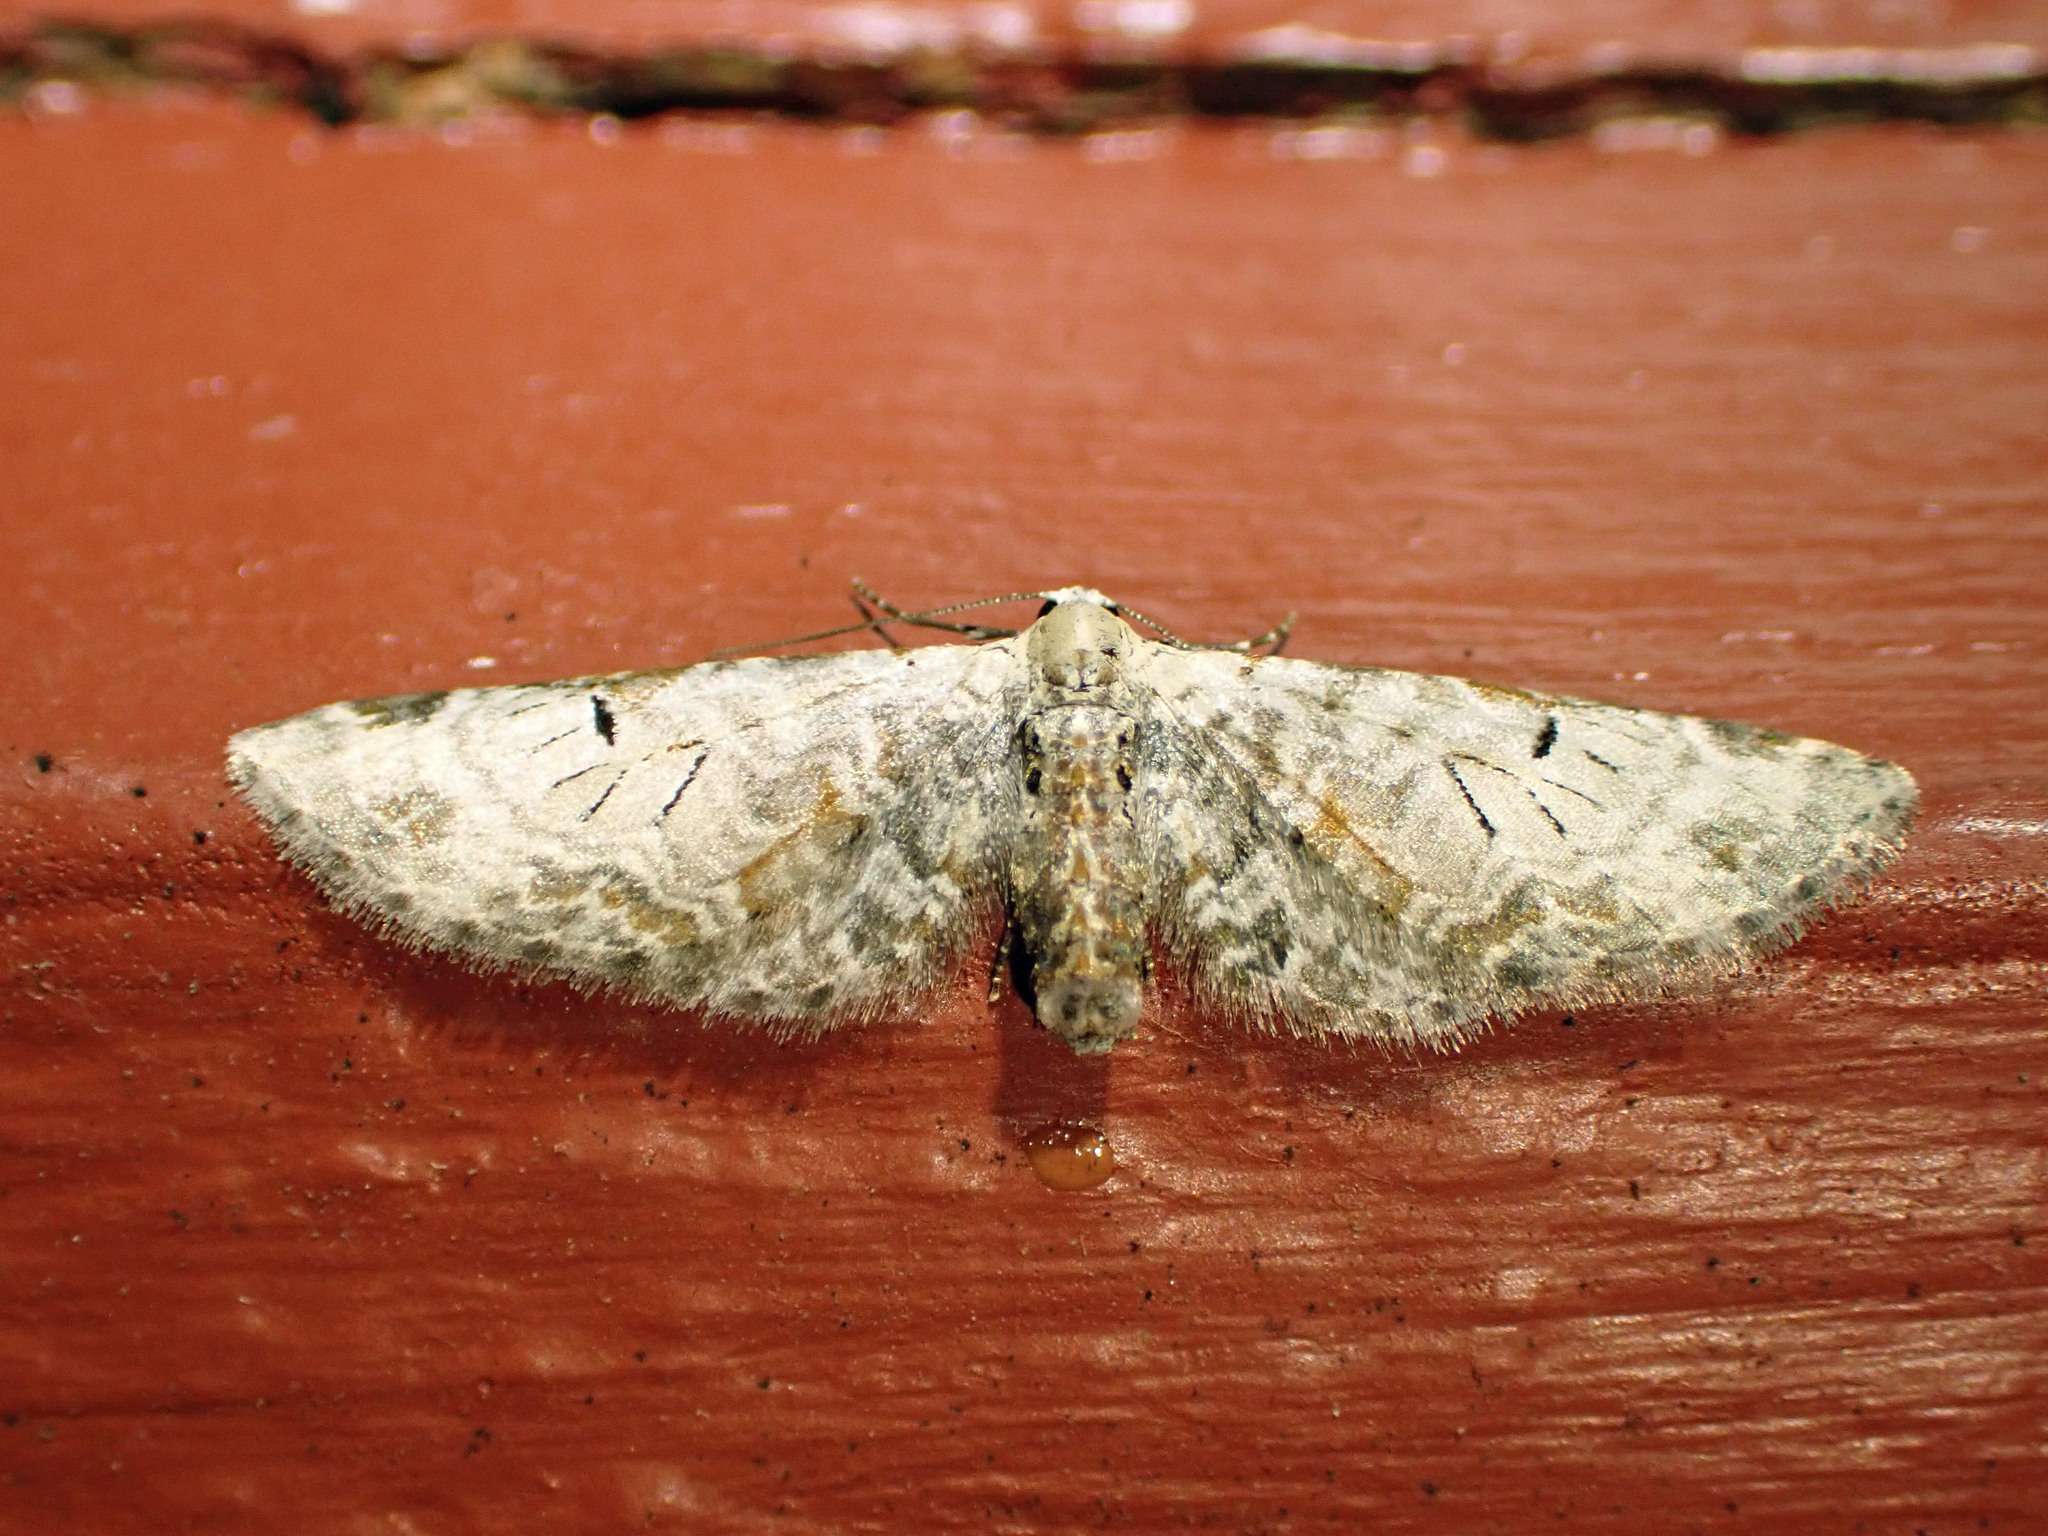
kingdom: Animalia
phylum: Arthropoda
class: Insecta
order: Lepidoptera
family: Geometridae
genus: Eupithecia
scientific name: Eupithecia ravocostaliata
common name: Great varigated pug
